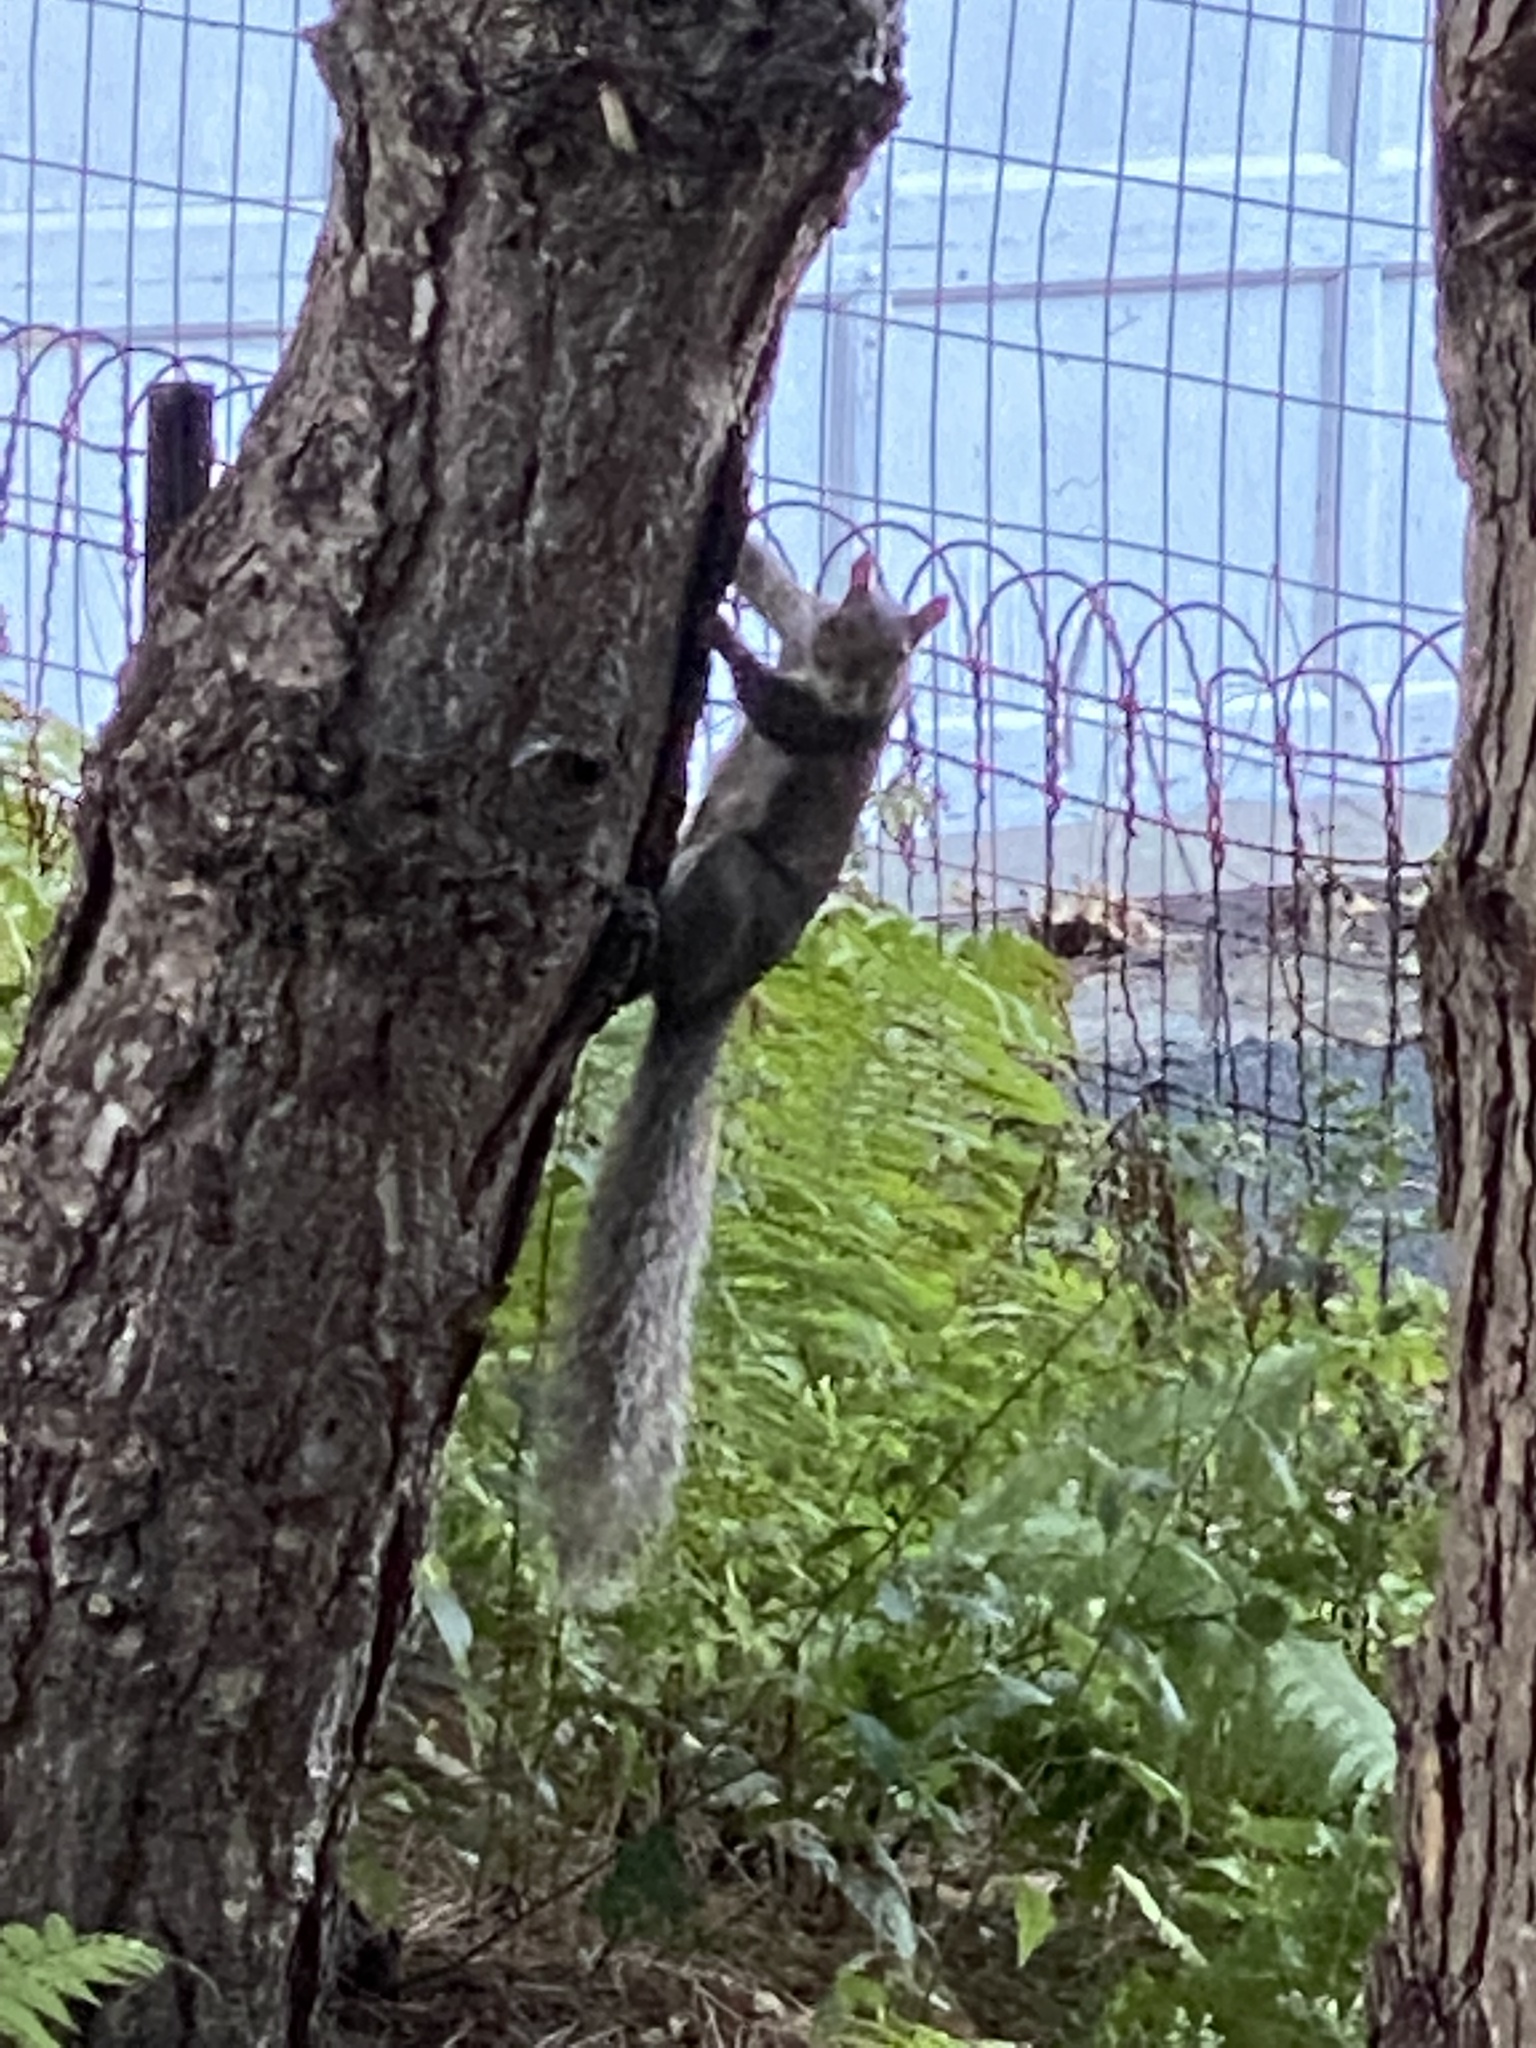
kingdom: Animalia
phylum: Chordata
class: Mammalia
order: Rodentia
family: Sciuridae
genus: Sciurus
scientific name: Sciurus carolinensis
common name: Eastern gray squirrel
